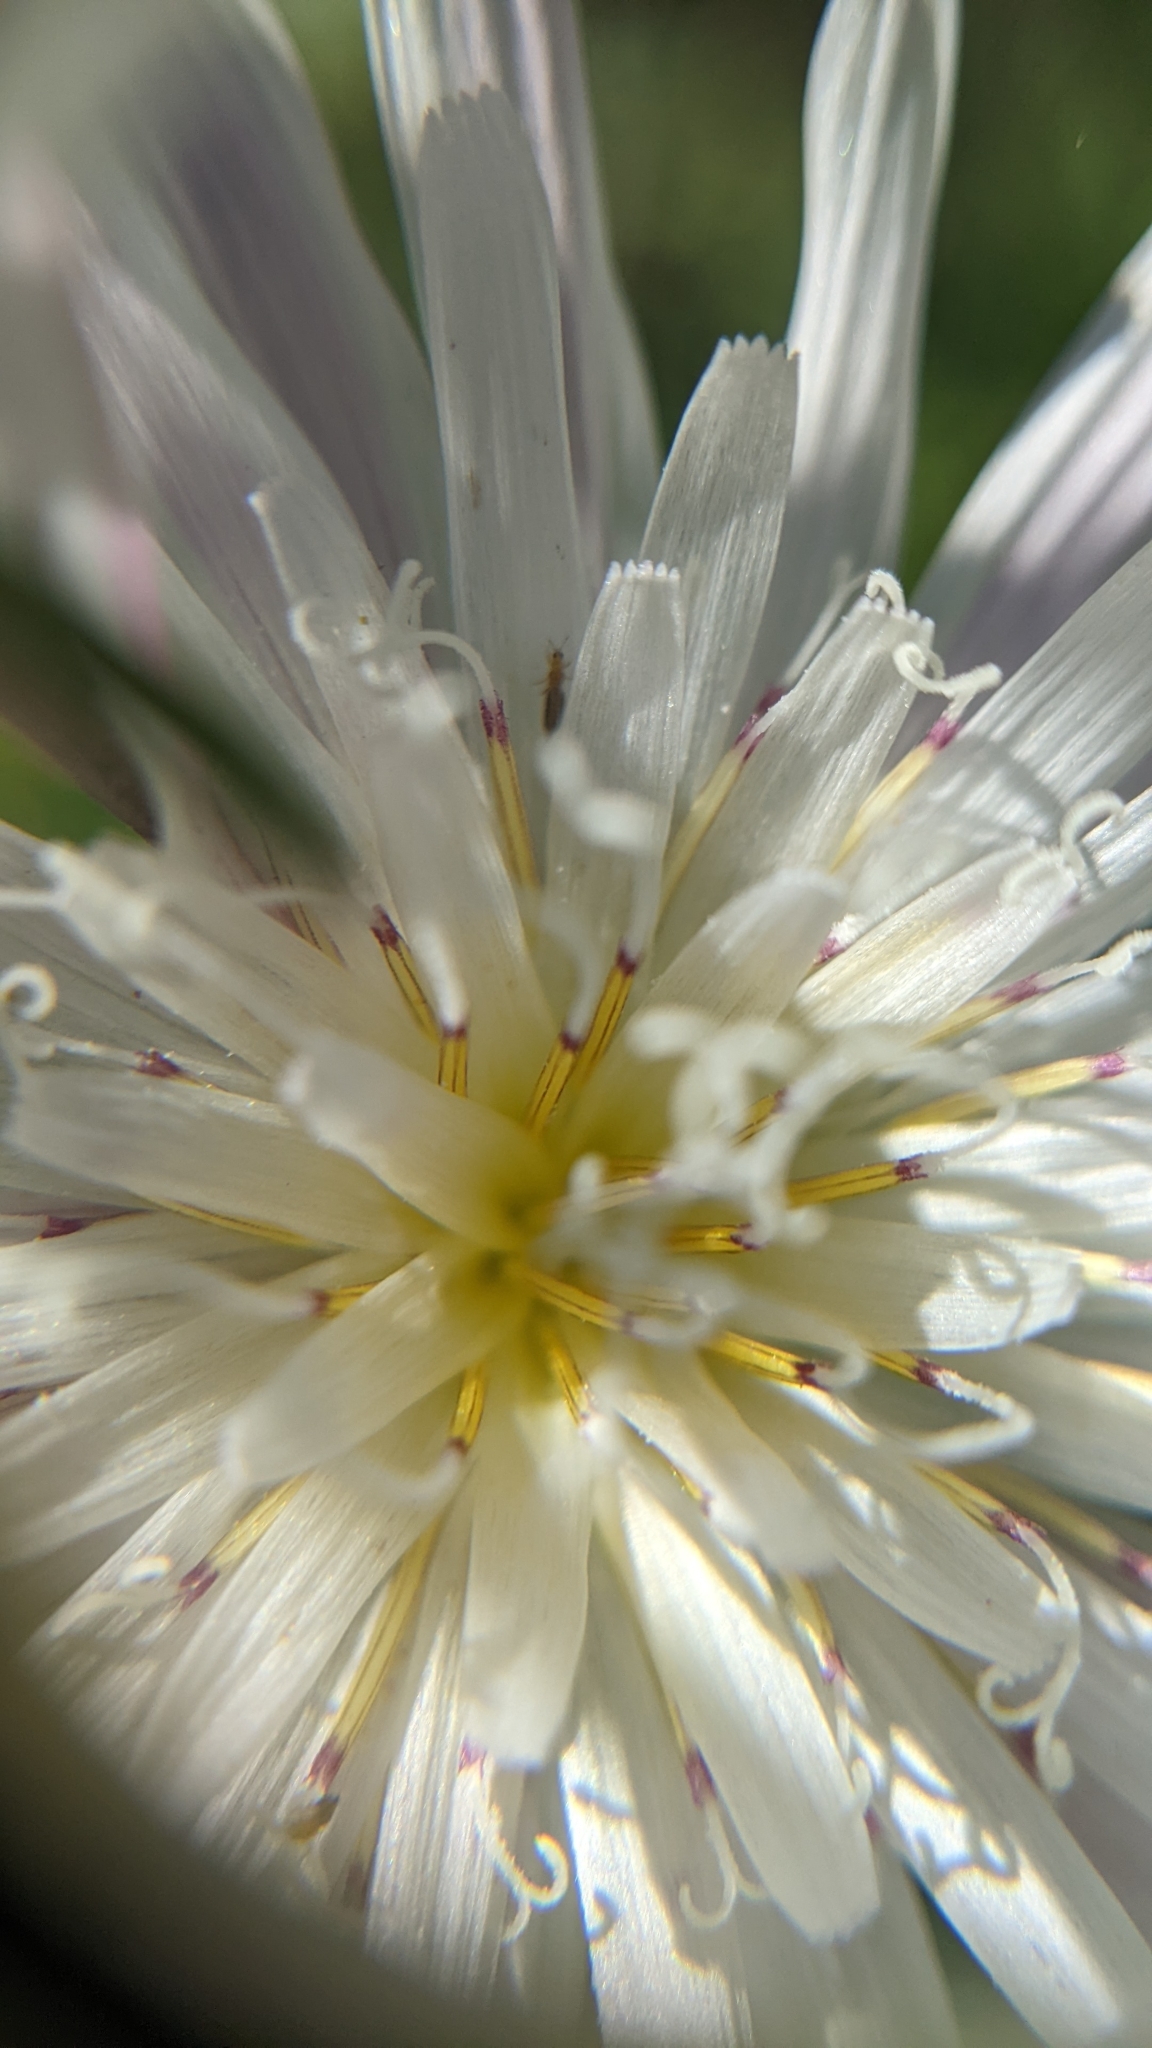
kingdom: Plantae
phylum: Tracheophyta
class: Magnoliopsida
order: Asterales
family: Asteraceae
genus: Malacothrix
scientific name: Malacothrix saxatilis
